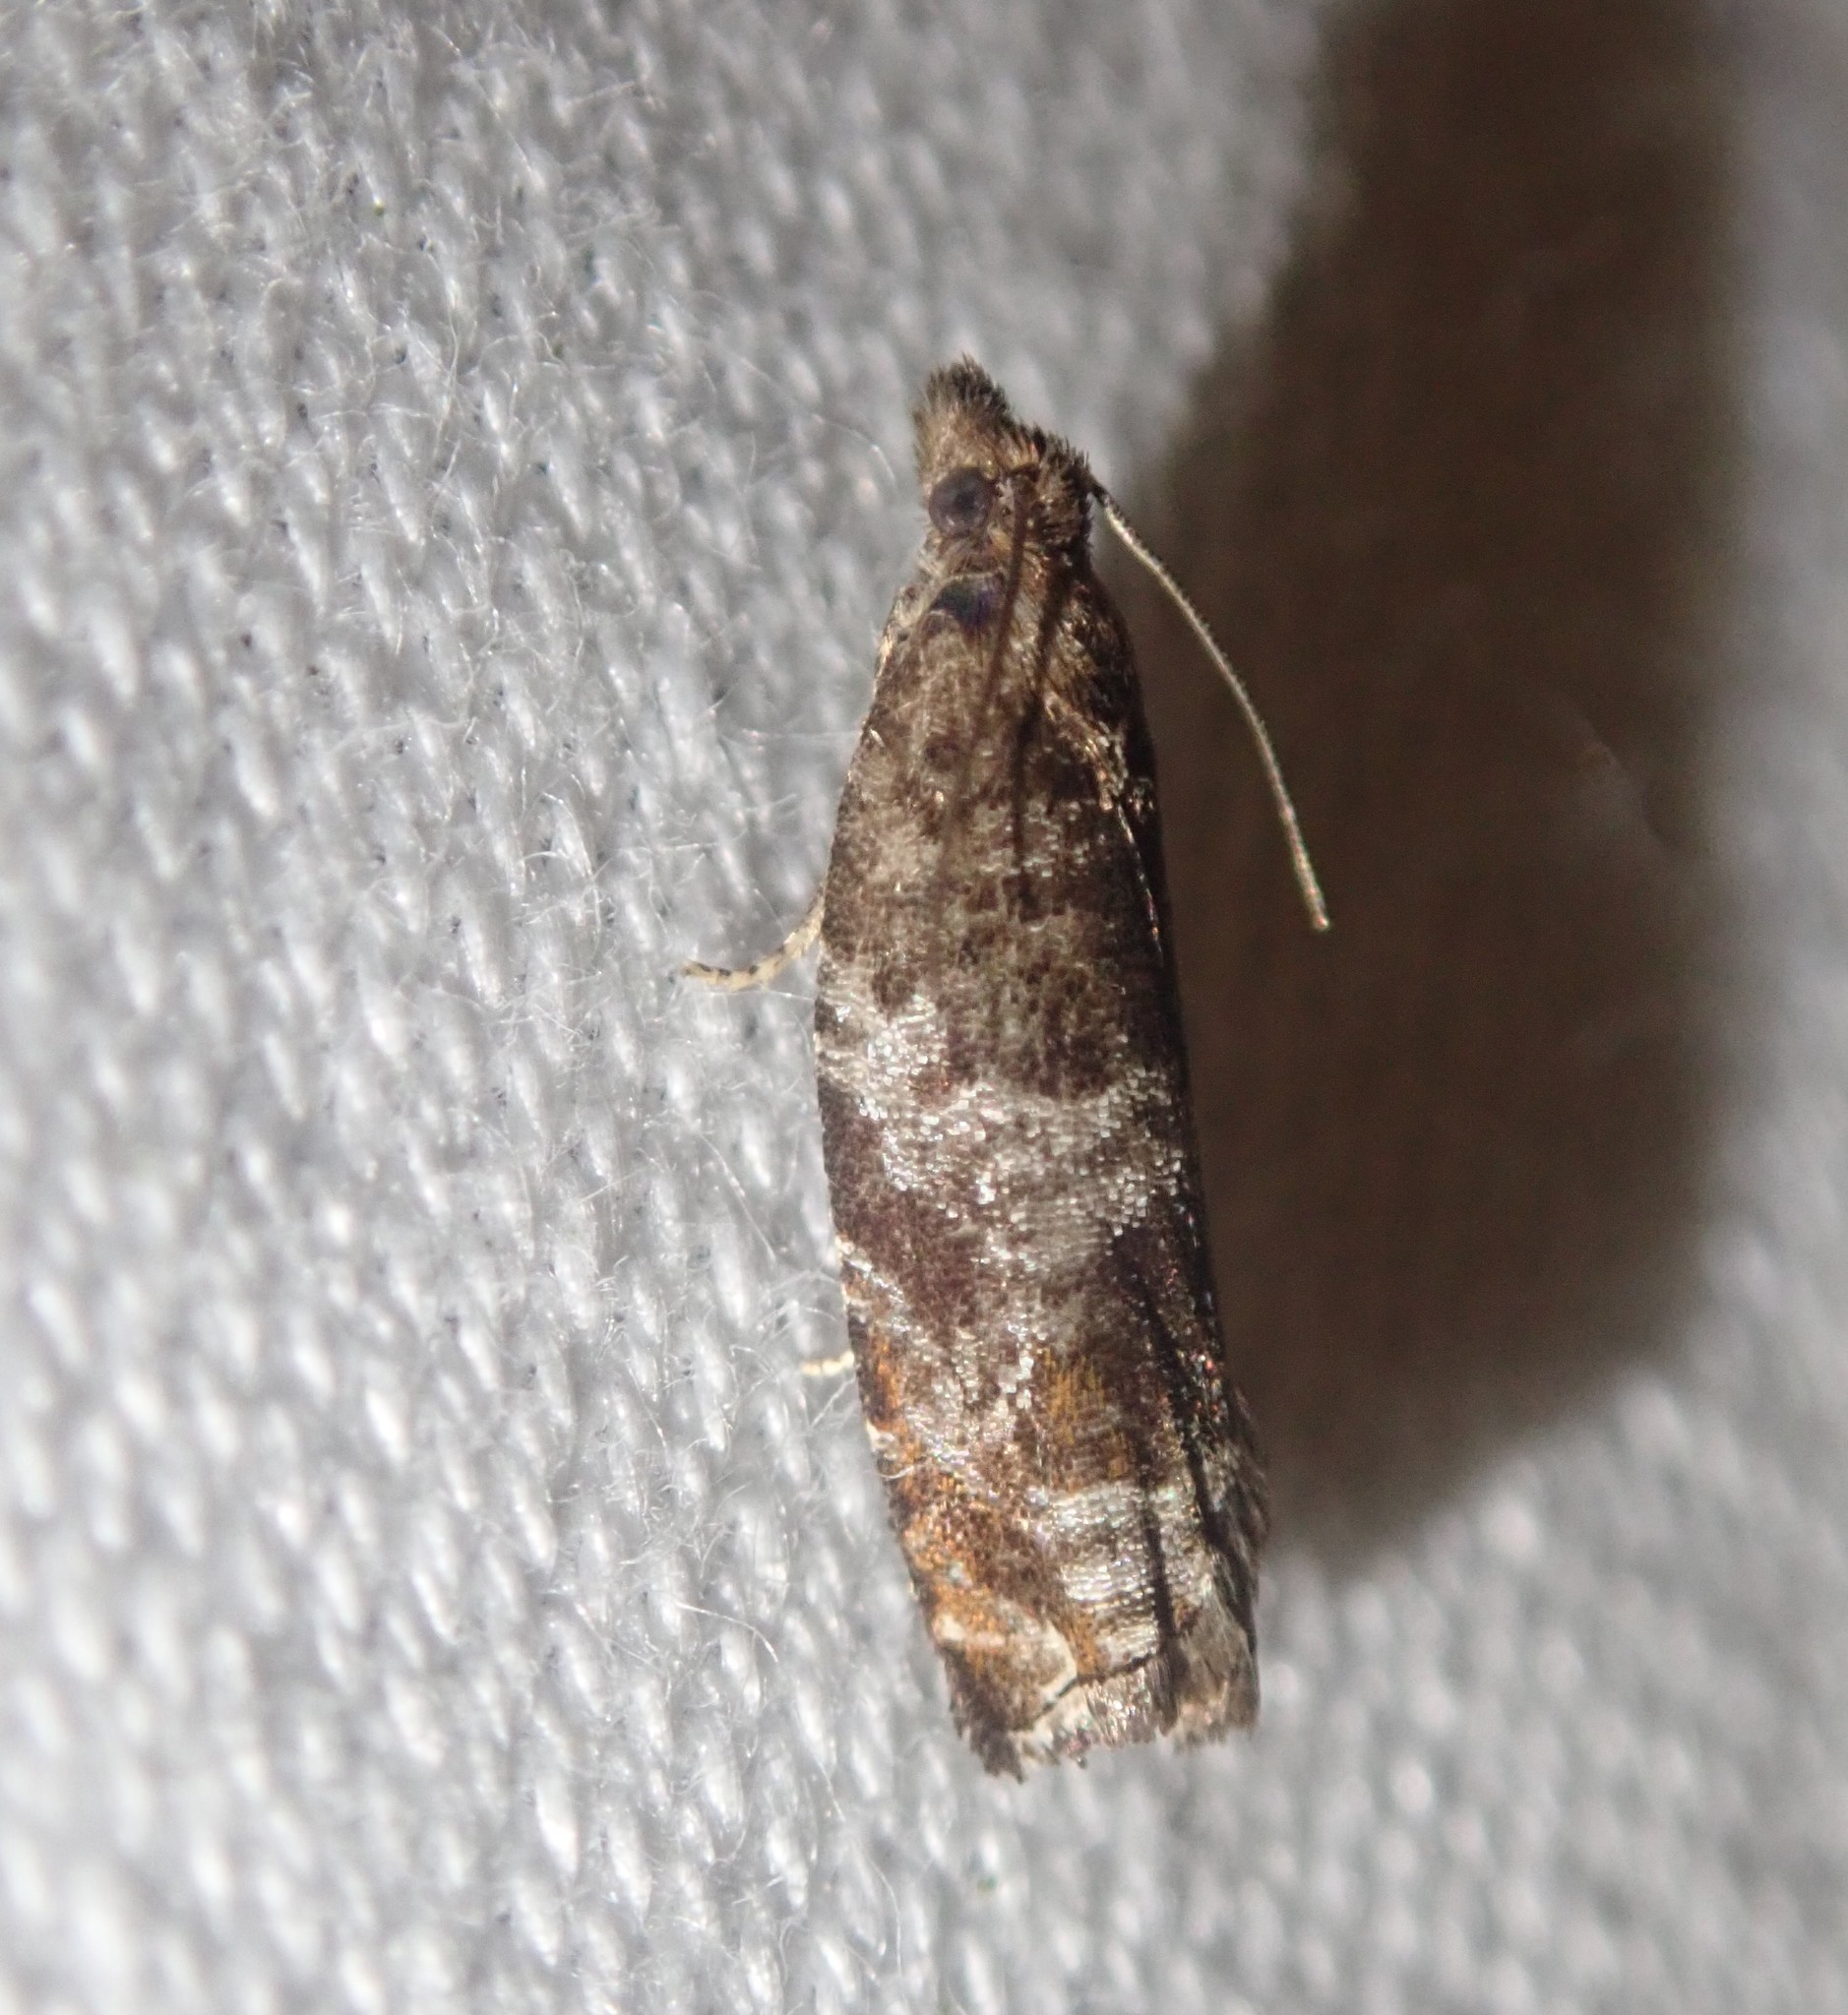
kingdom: Animalia
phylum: Arthropoda
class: Insecta
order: Lepidoptera
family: Tortricidae
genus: Ancylis
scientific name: Ancylis achatana
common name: Triangle-marked roller
